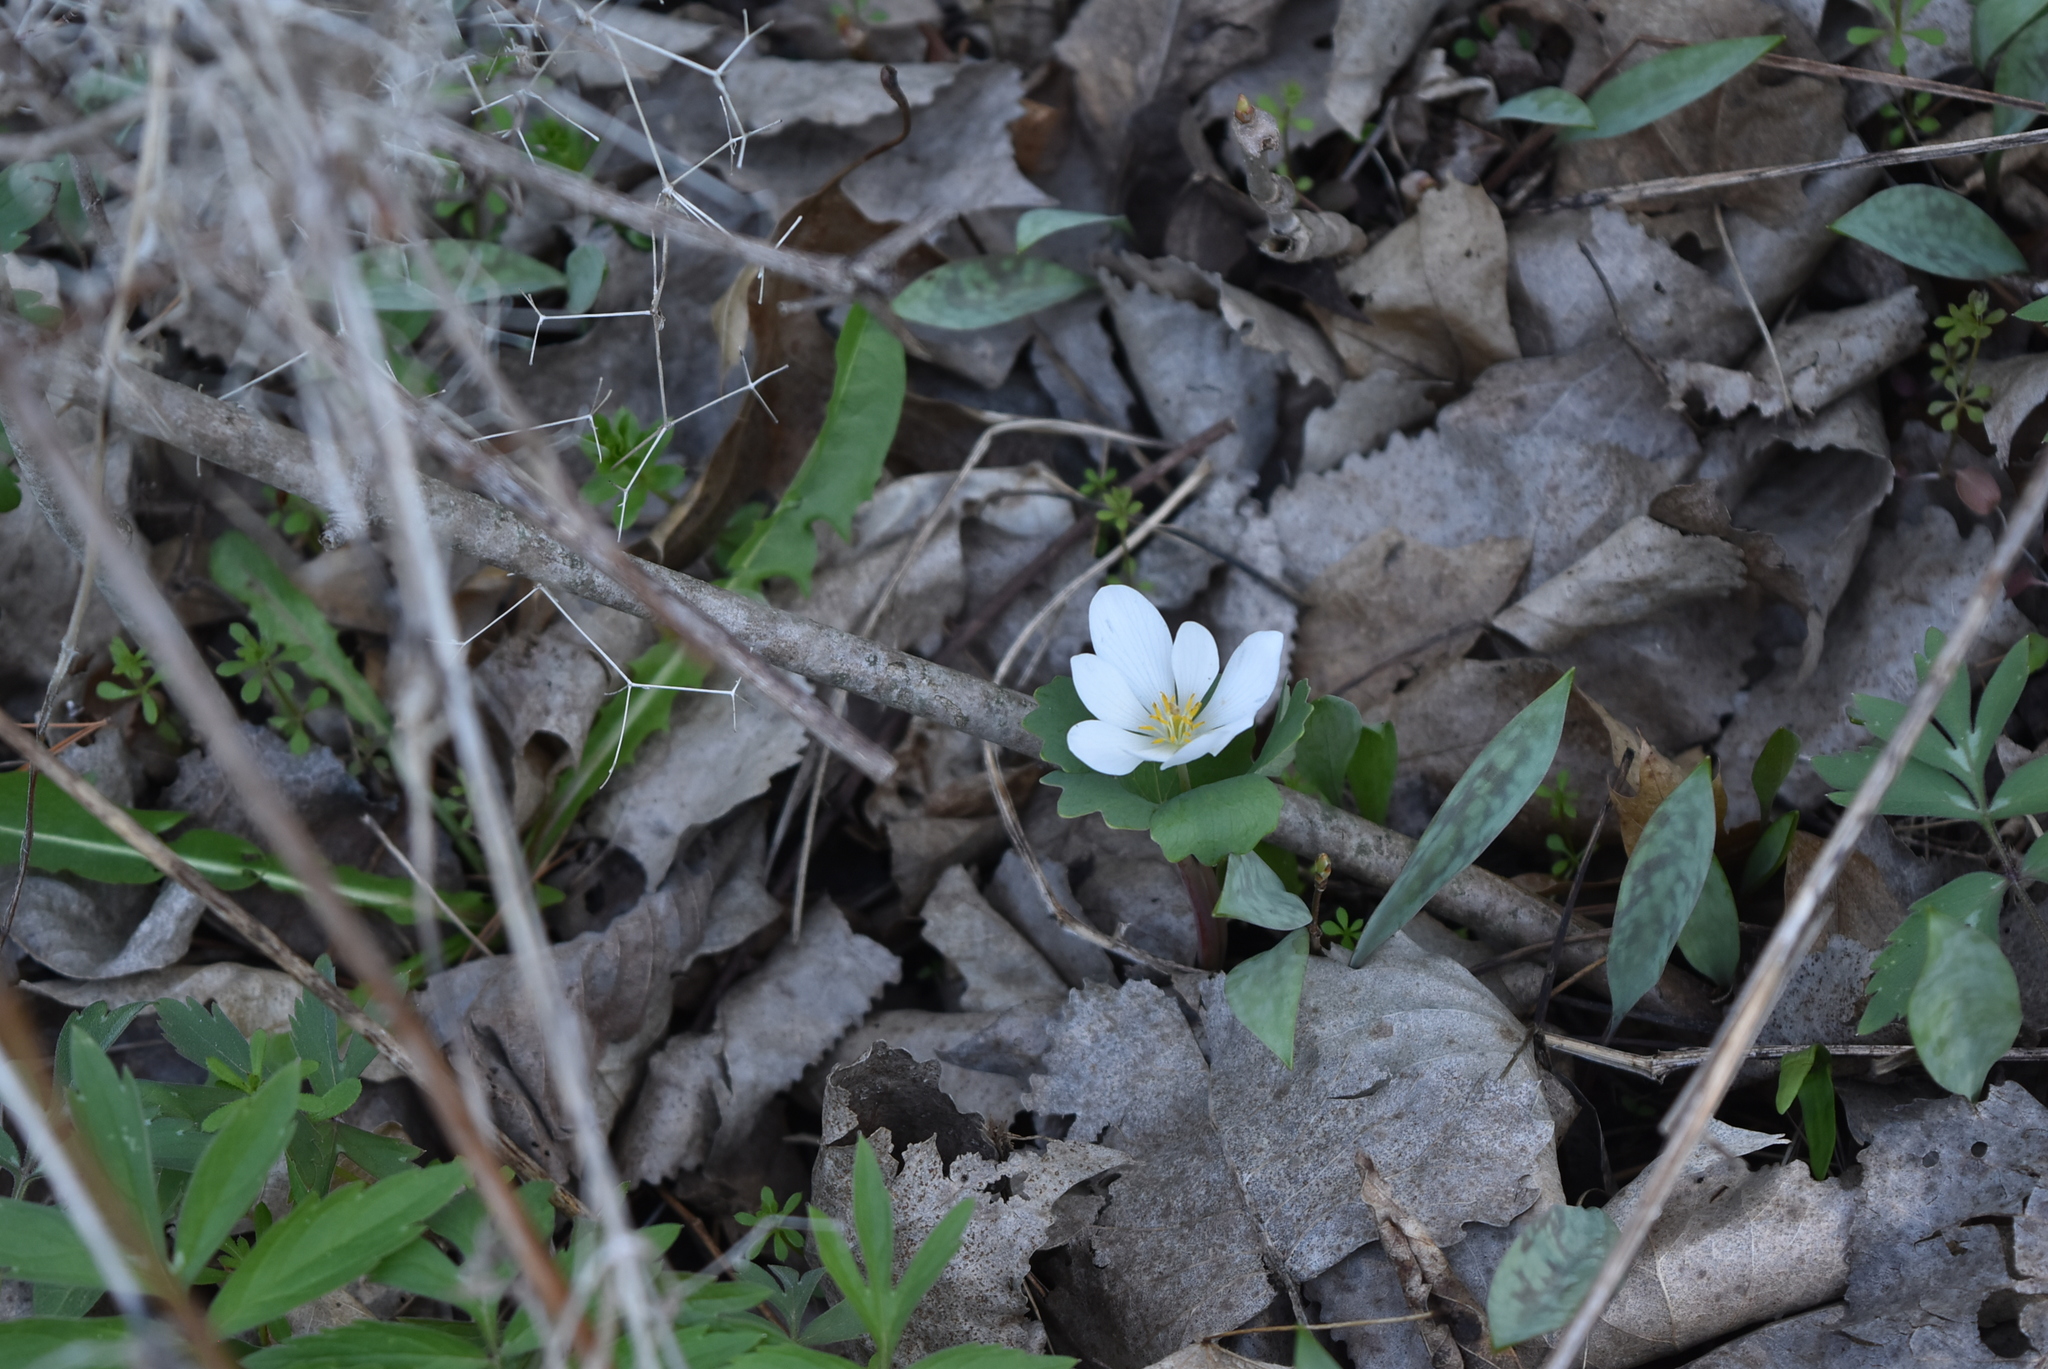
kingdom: Plantae
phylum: Tracheophyta
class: Magnoliopsida
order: Ranunculales
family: Papaveraceae
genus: Sanguinaria
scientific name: Sanguinaria canadensis
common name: Bloodroot
